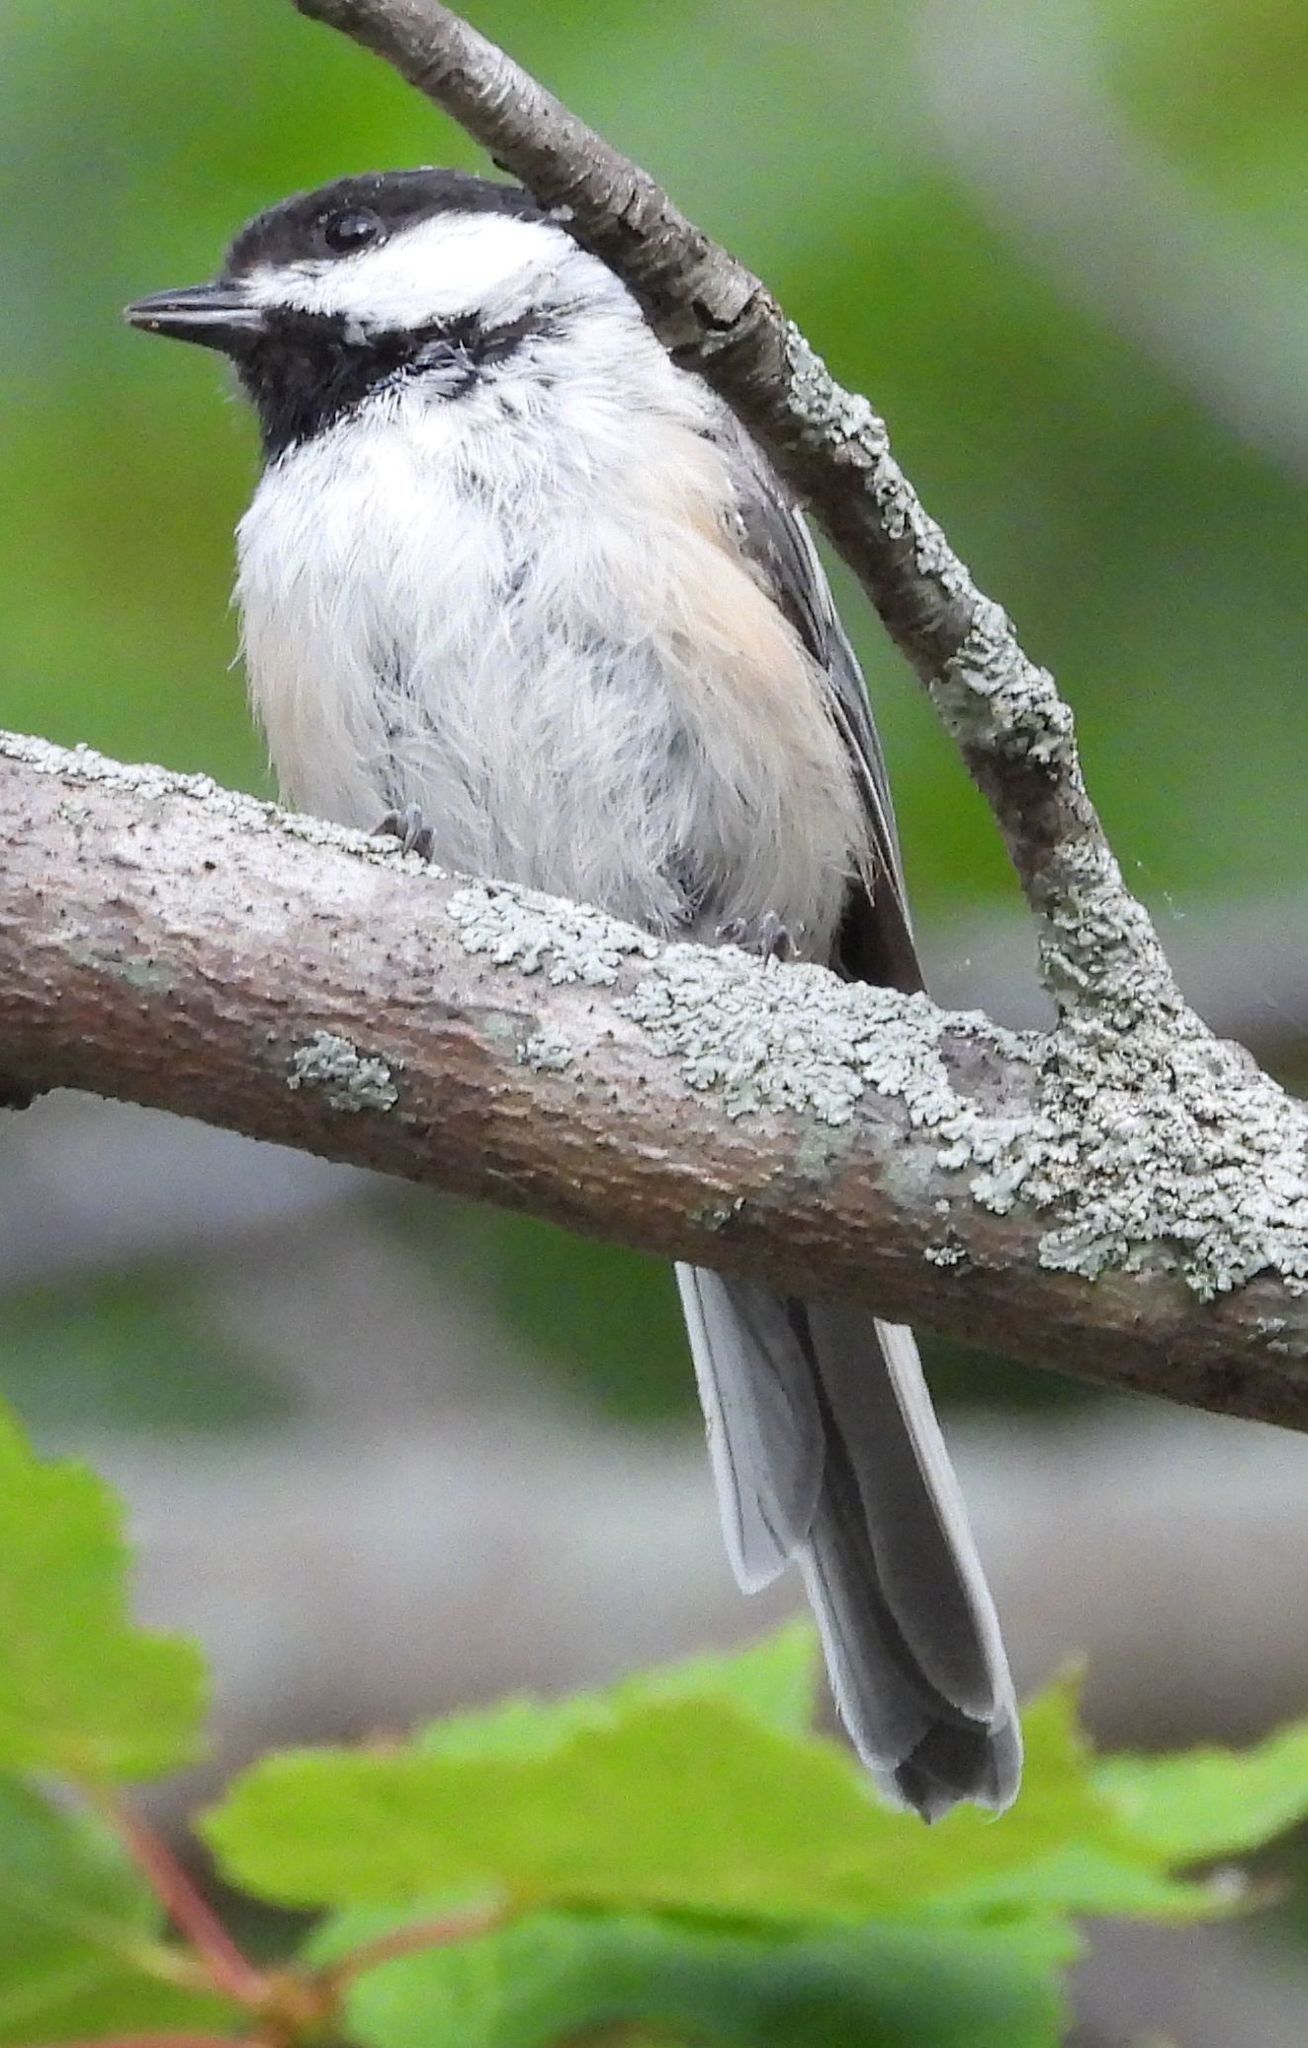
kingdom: Animalia
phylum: Chordata
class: Aves
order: Passeriformes
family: Paridae
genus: Poecile
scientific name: Poecile atricapillus
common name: Black-capped chickadee
